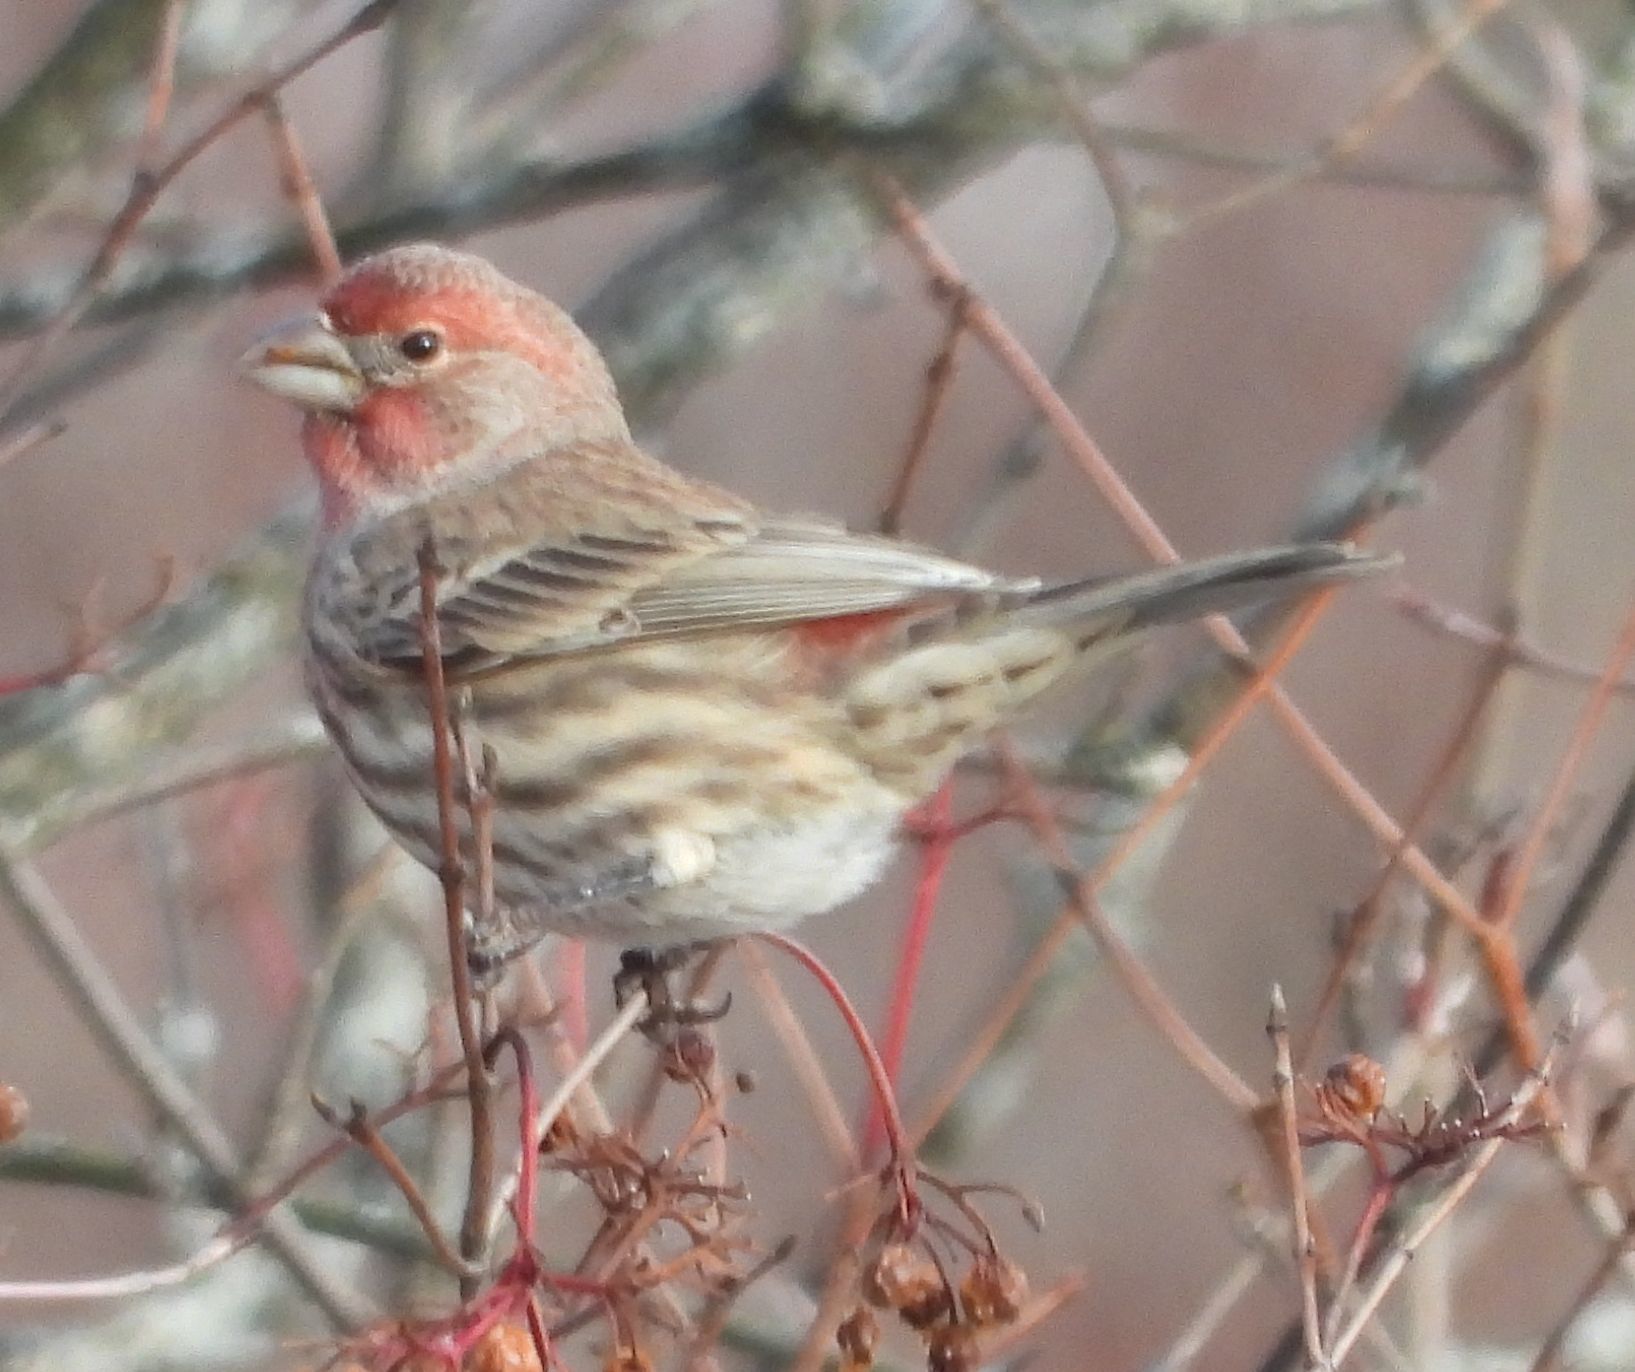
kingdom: Animalia
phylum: Chordata
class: Aves
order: Passeriformes
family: Fringillidae
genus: Haemorhous
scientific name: Haemorhous mexicanus
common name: House finch
